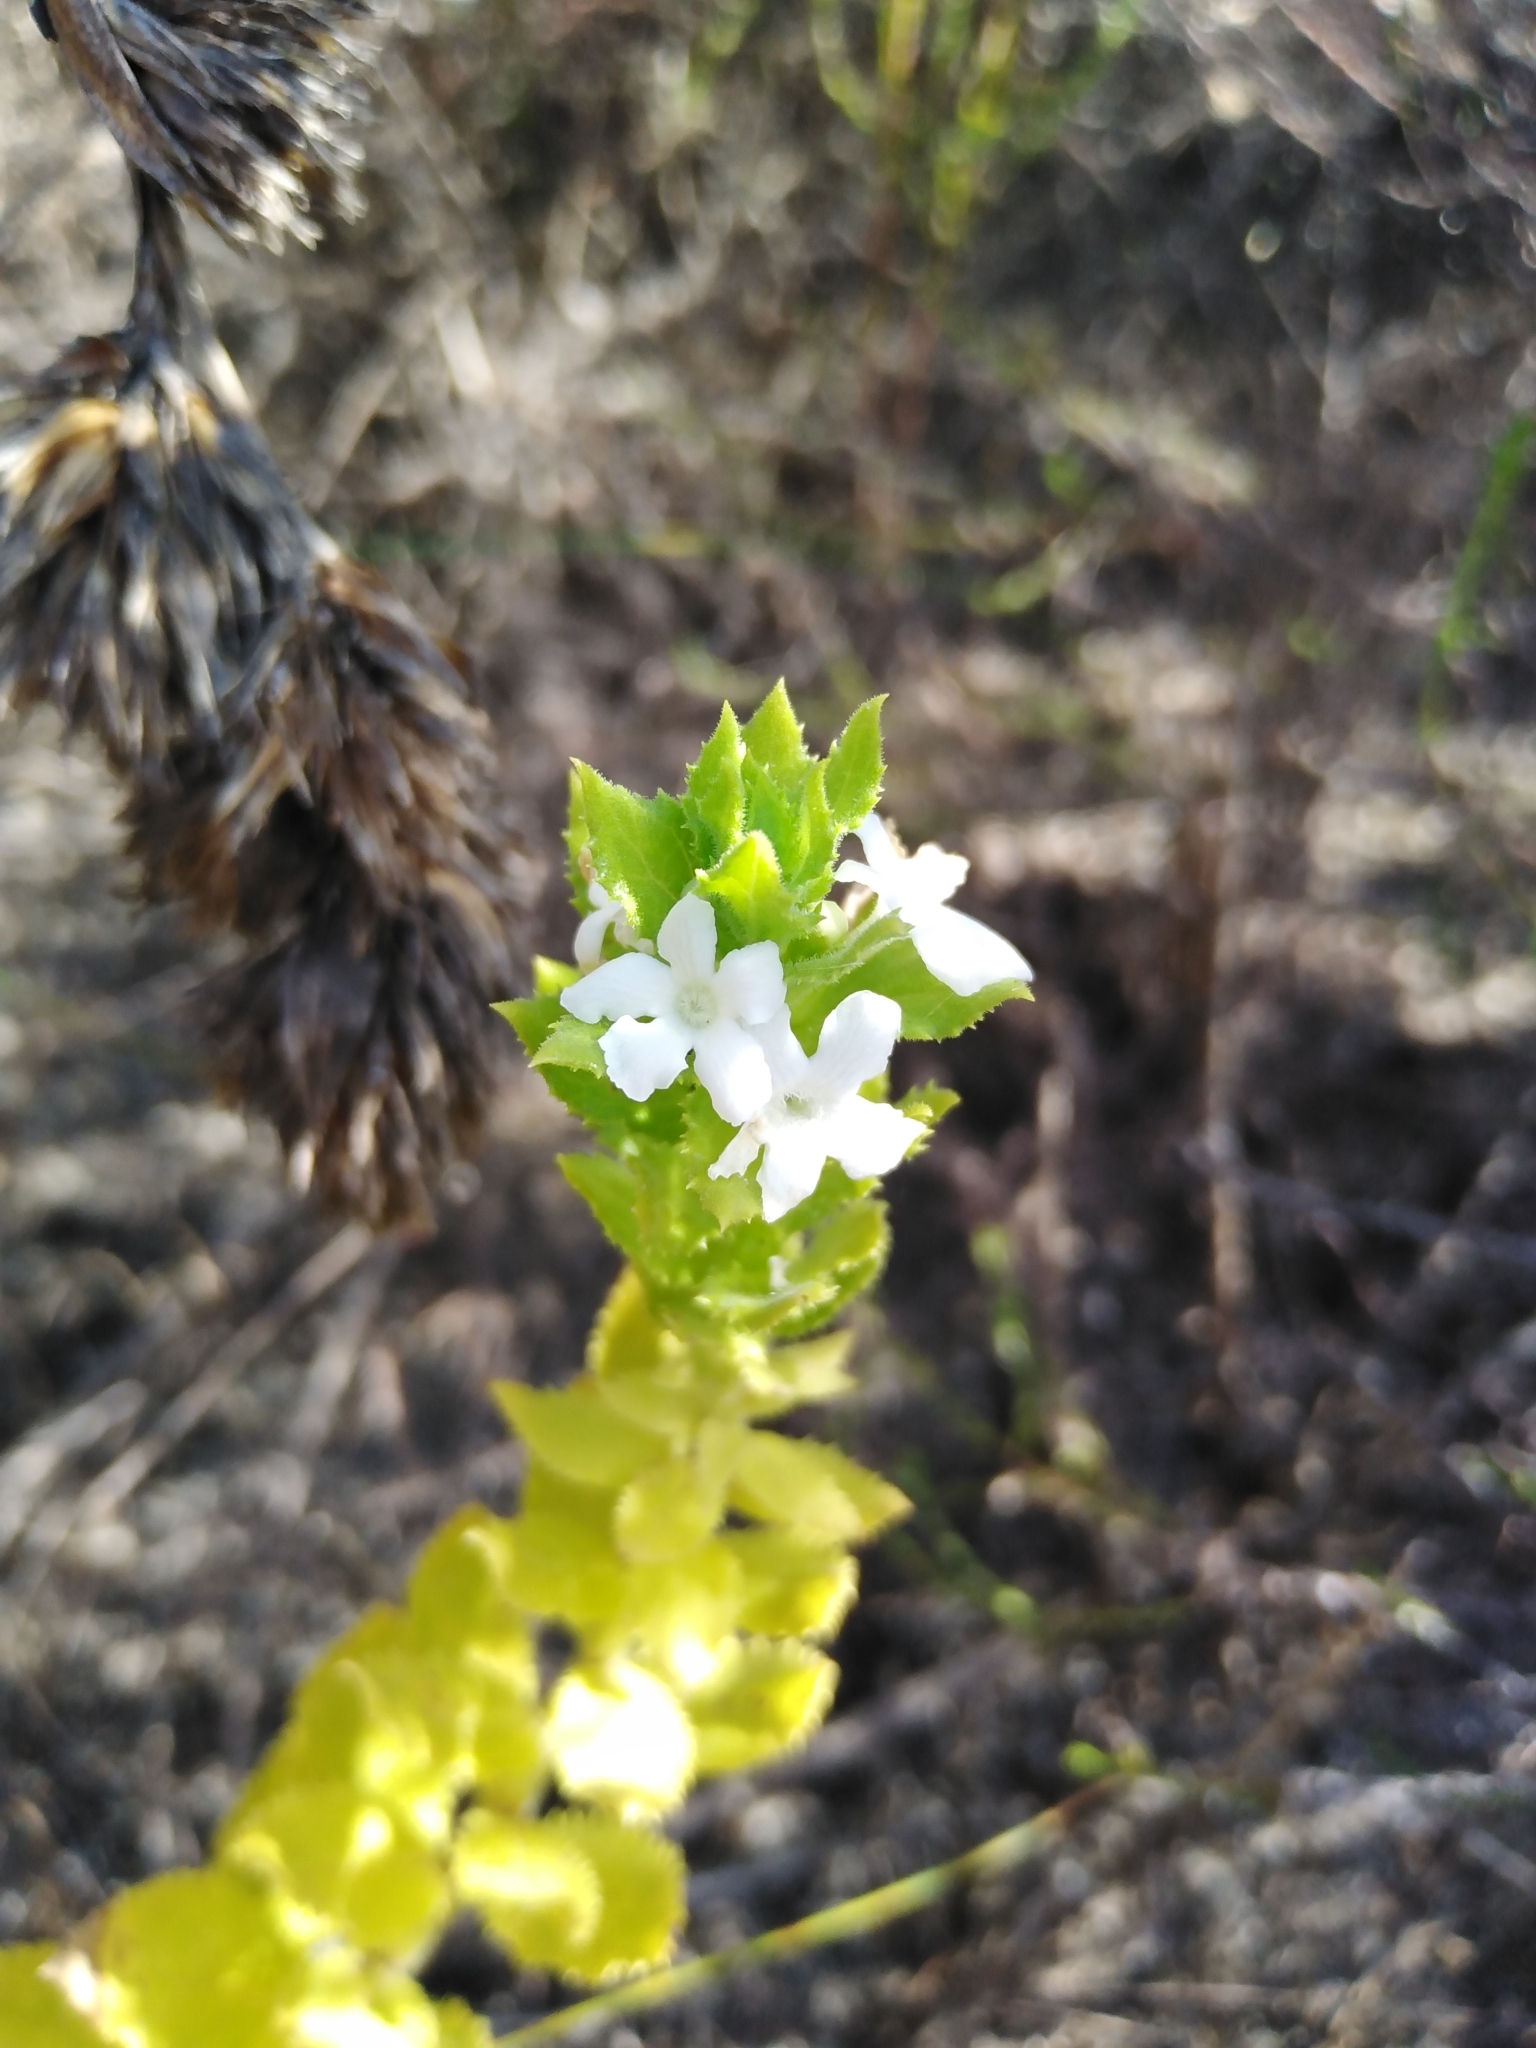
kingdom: Plantae
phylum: Tracheophyta
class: Magnoliopsida
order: Lamiales
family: Scrophulariaceae
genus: Oftia
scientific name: Oftia africana
